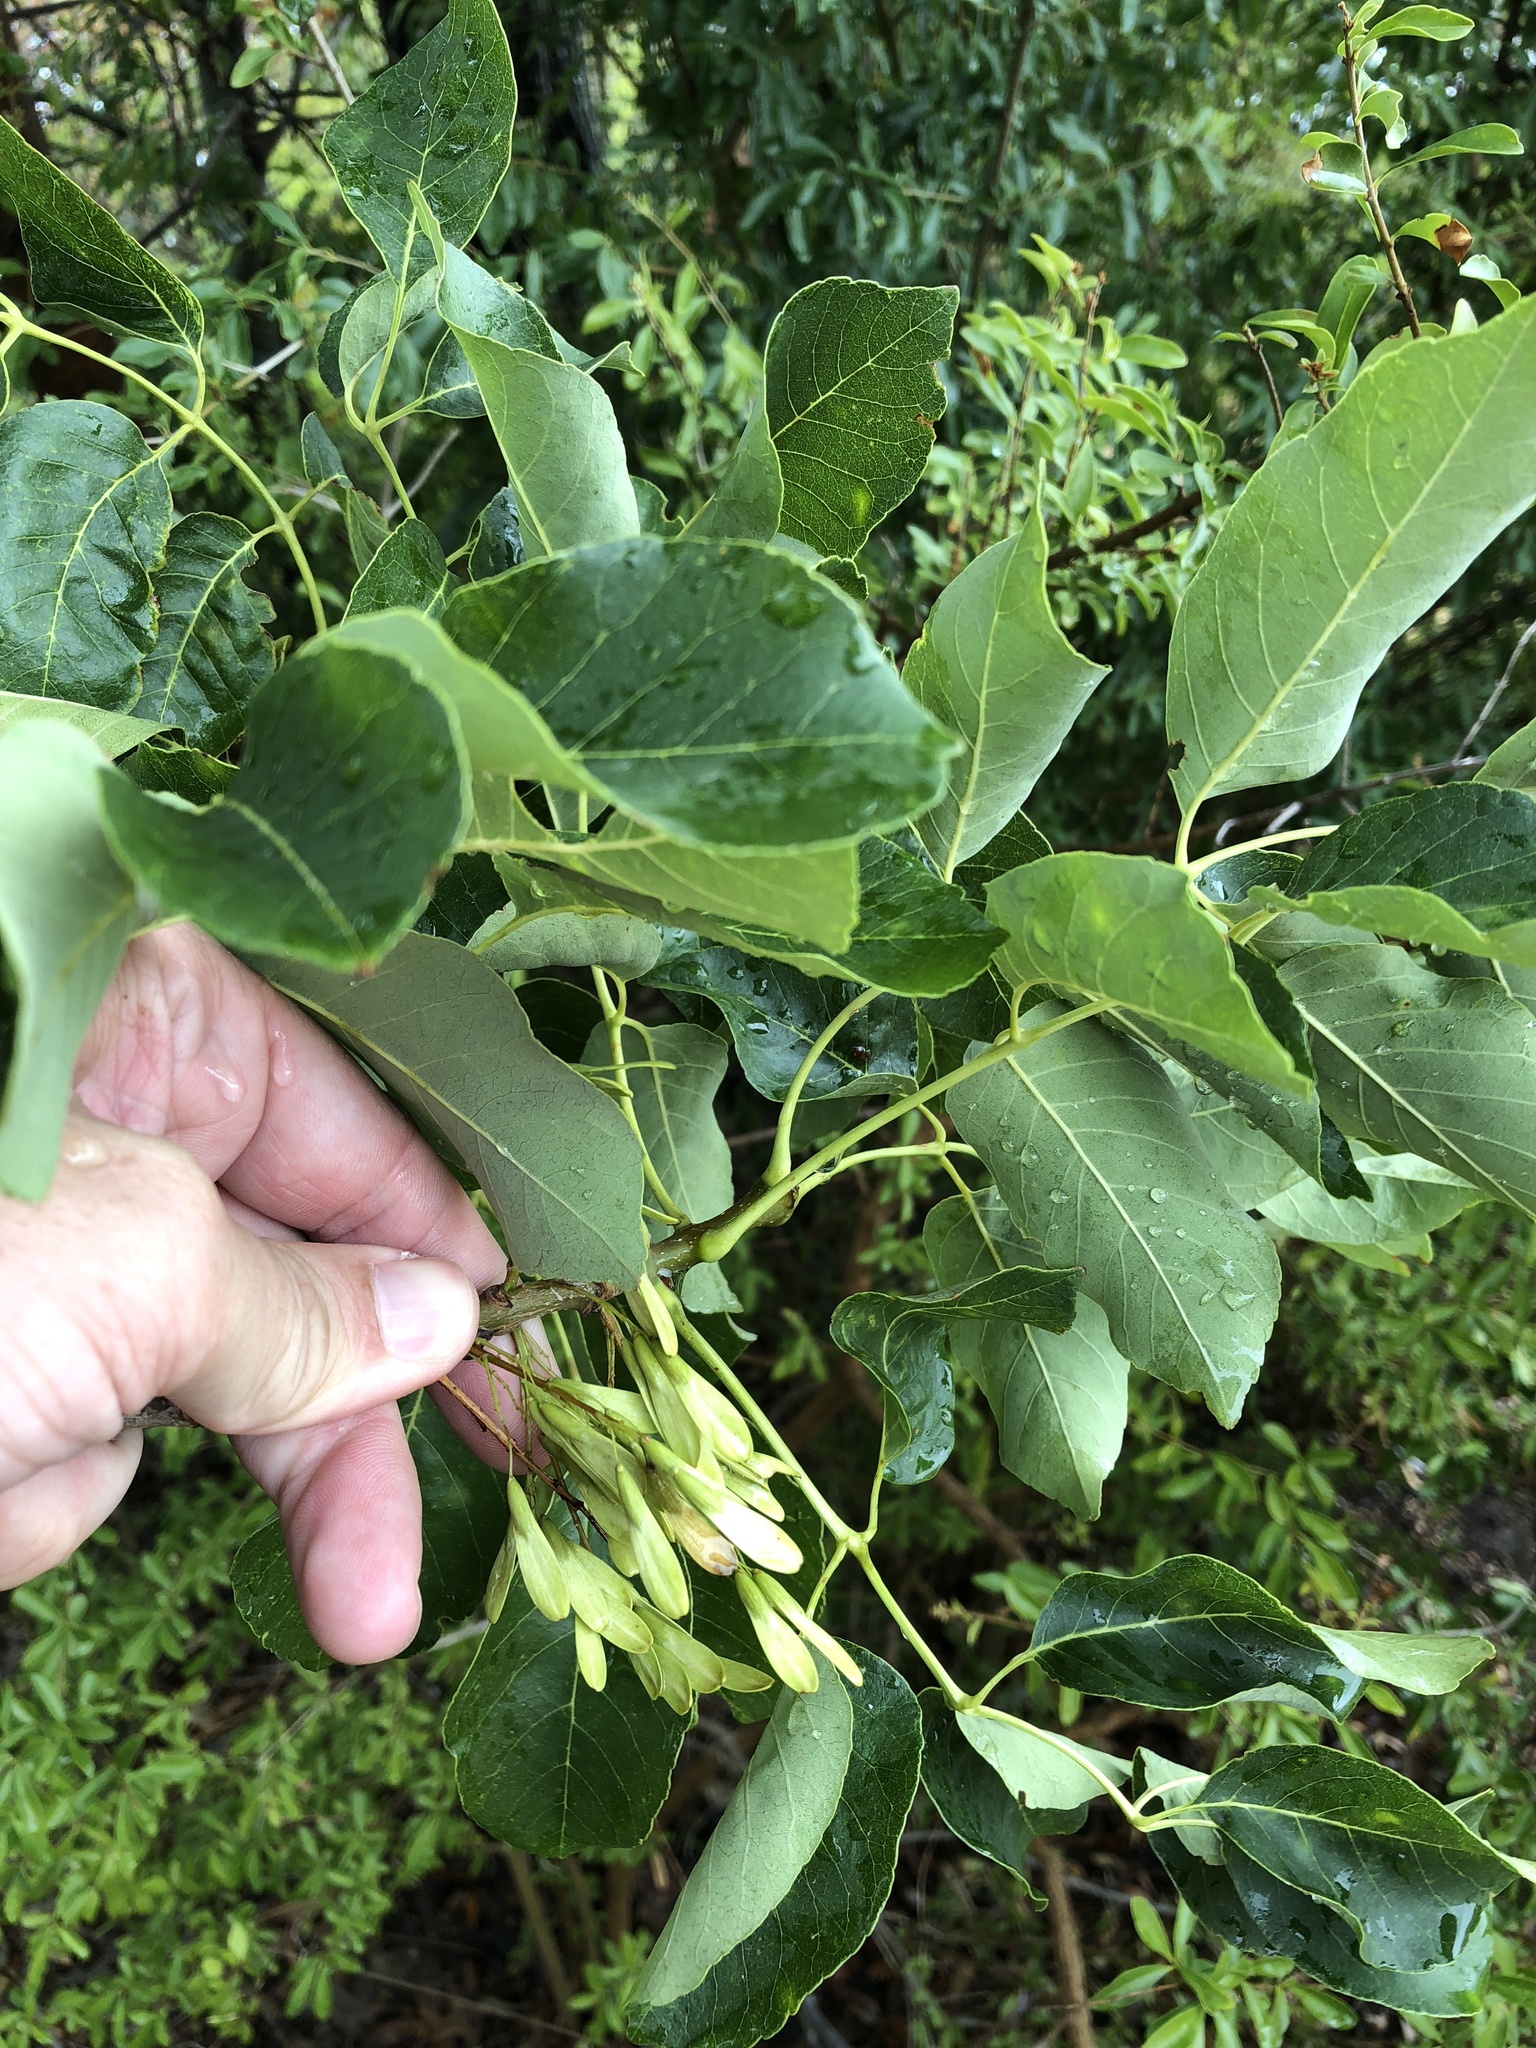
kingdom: Plantae
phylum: Tracheophyta
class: Magnoliopsida
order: Lamiales
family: Oleaceae
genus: Fraxinus
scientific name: Fraxinus albicans
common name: Texas ash
